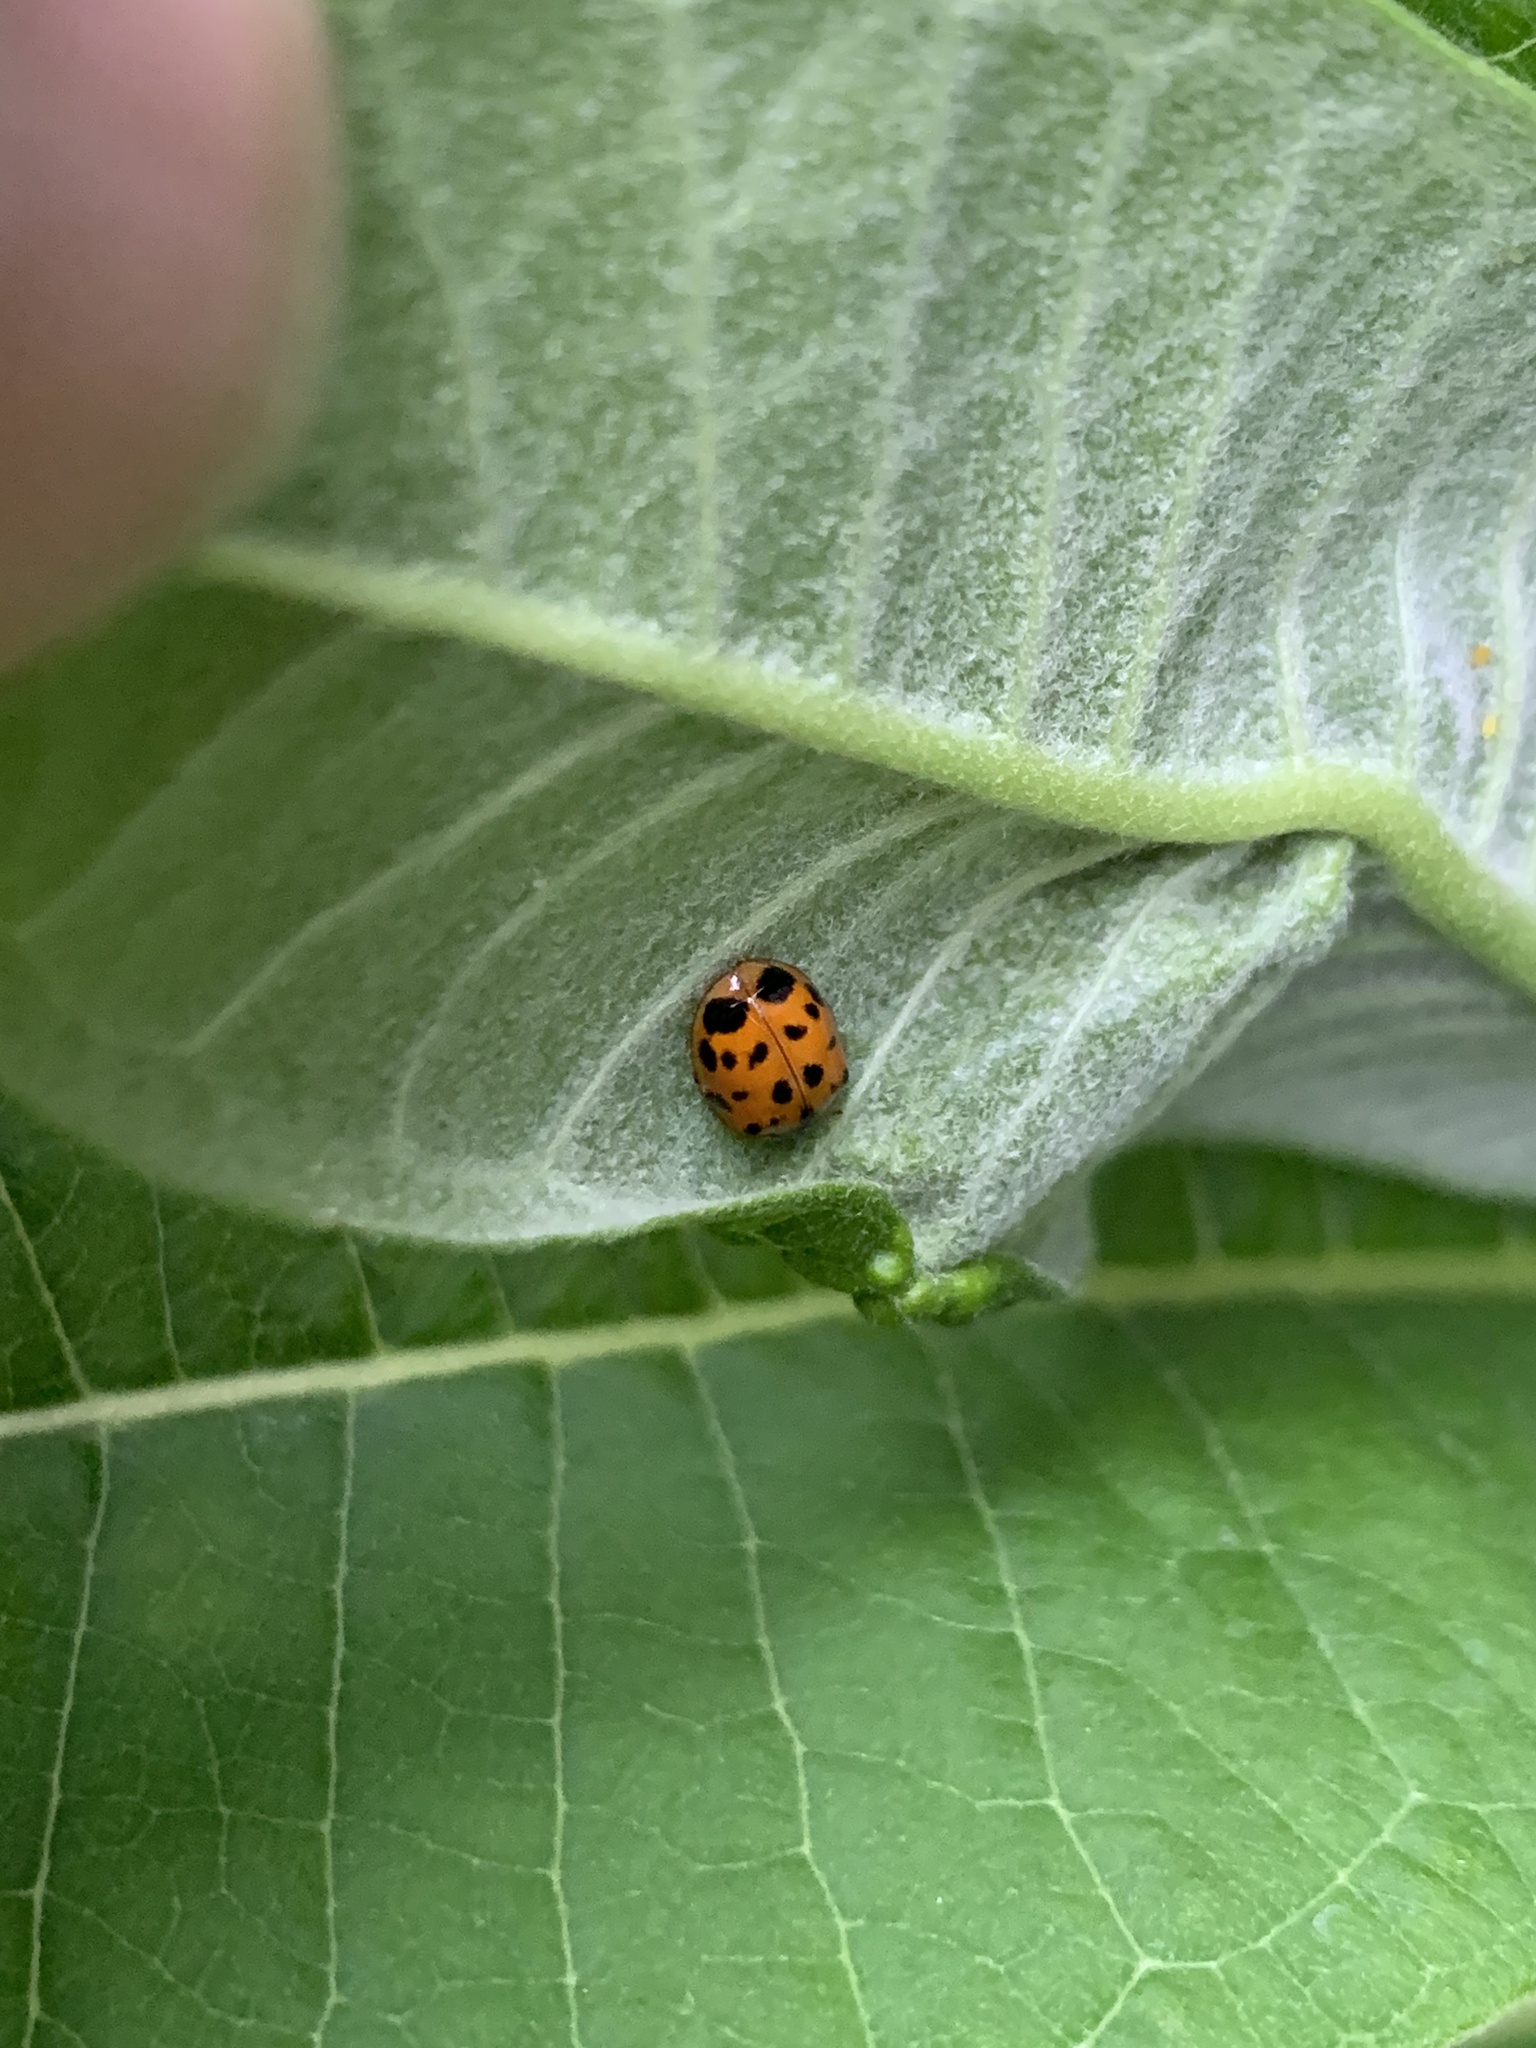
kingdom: Animalia
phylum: Arthropoda
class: Insecta
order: Coleoptera
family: Coccinellidae
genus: Harmonia
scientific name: Harmonia axyridis
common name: Harlequin ladybird
